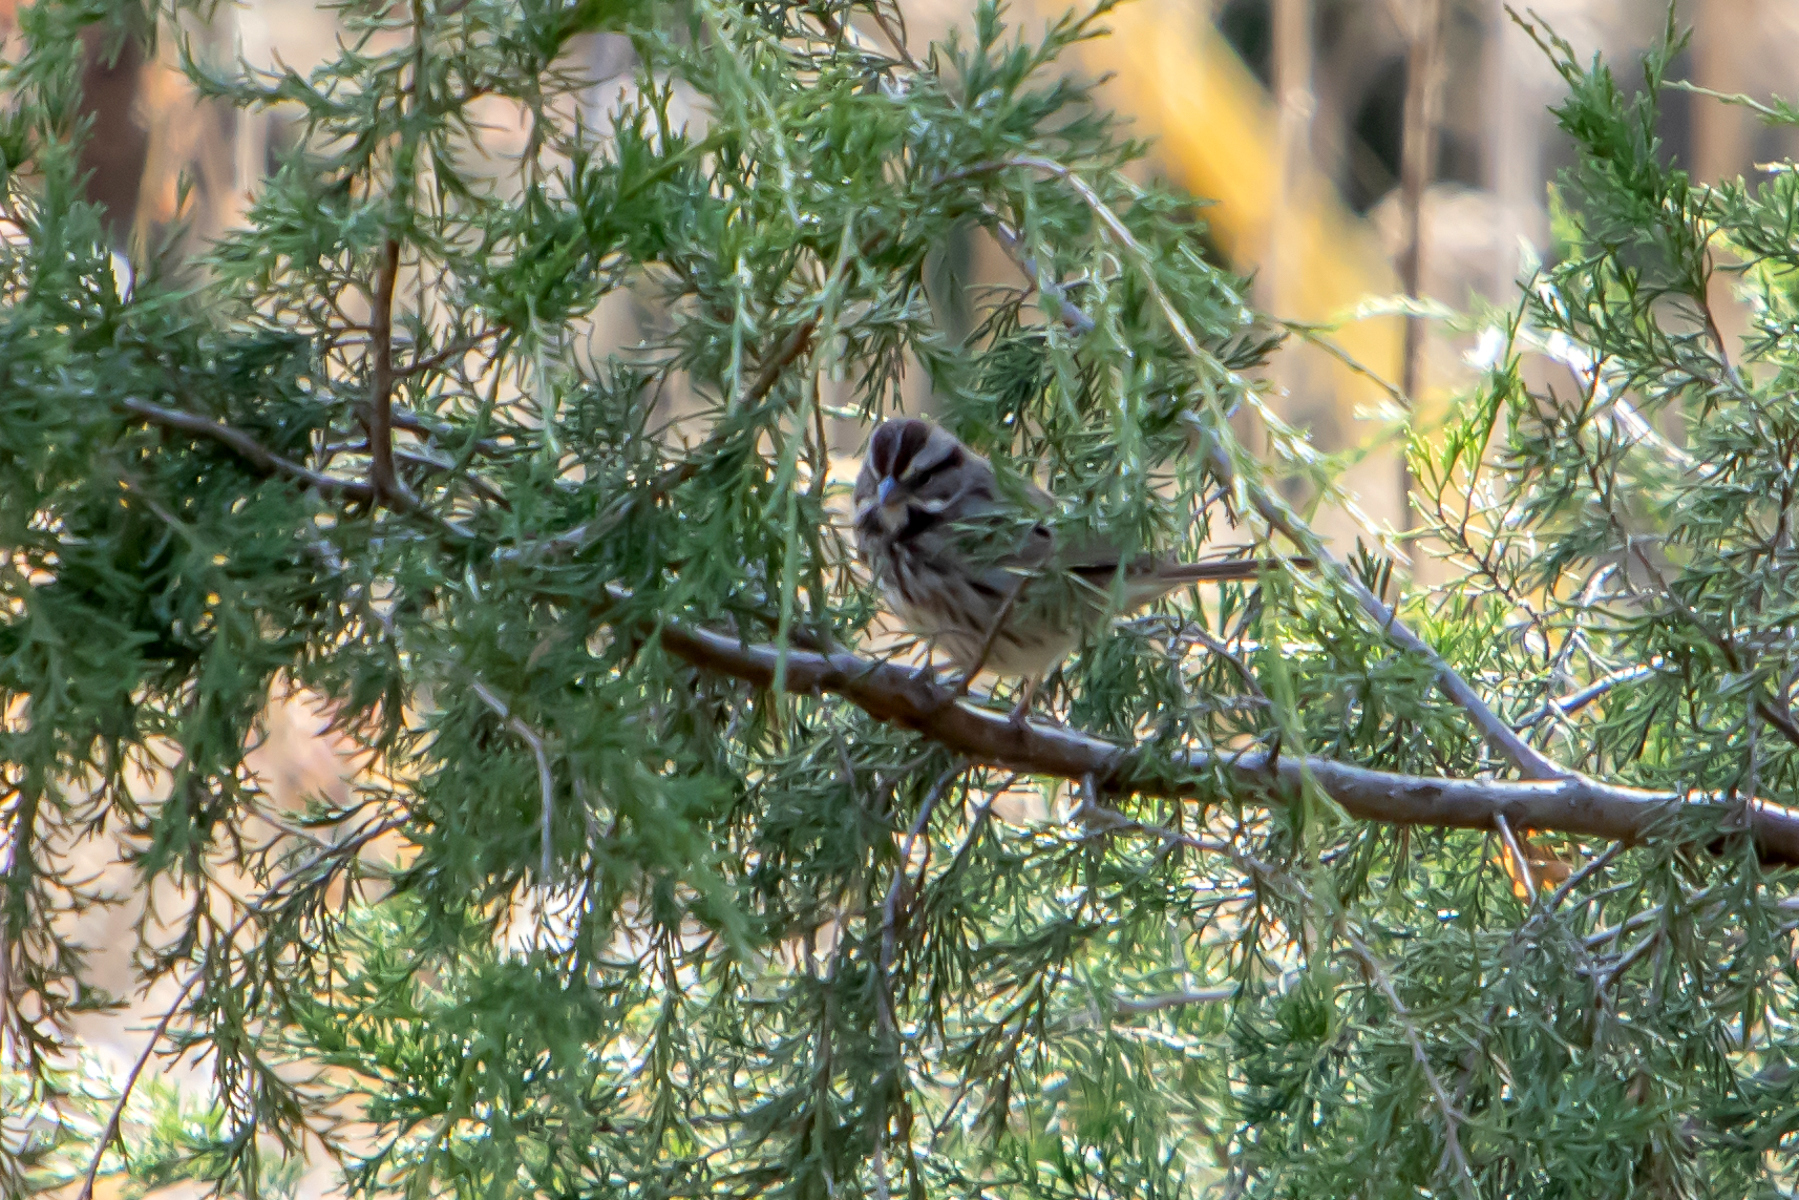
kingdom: Animalia
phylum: Chordata
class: Aves
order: Passeriformes
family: Passerellidae
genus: Melospiza
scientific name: Melospiza melodia
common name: Song sparrow
